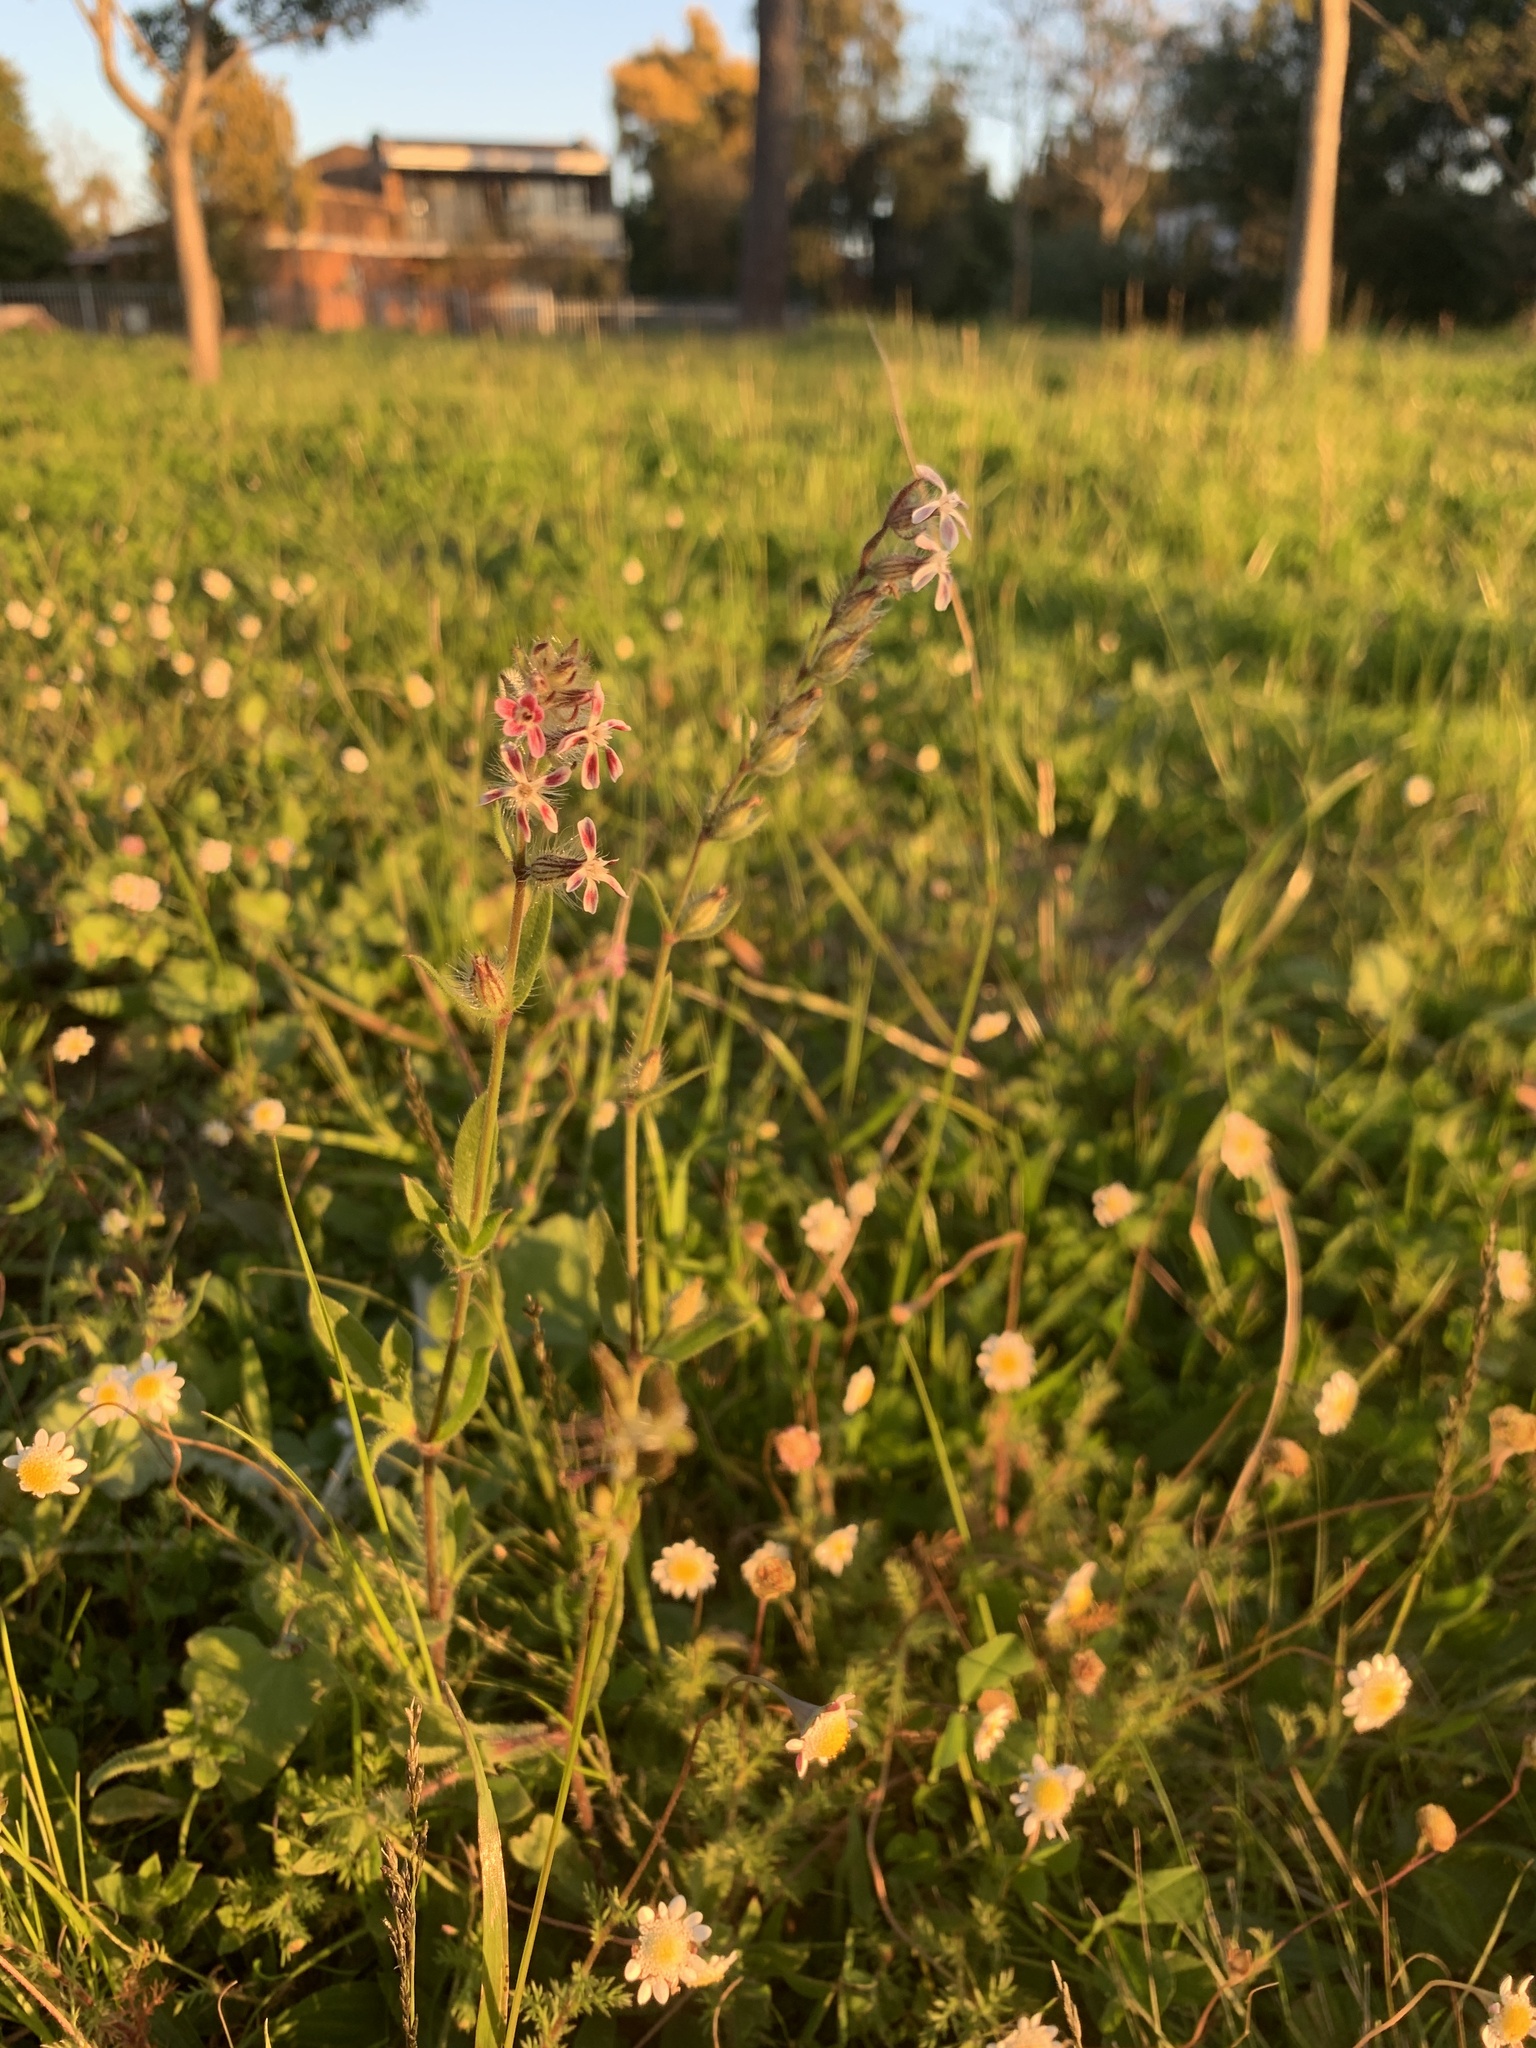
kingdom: Plantae
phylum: Tracheophyta
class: Magnoliopsida
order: Caryophyllales
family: Caryophyllaceae
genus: Silene
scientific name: Silene gallica
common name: Small-flowered catchfly
